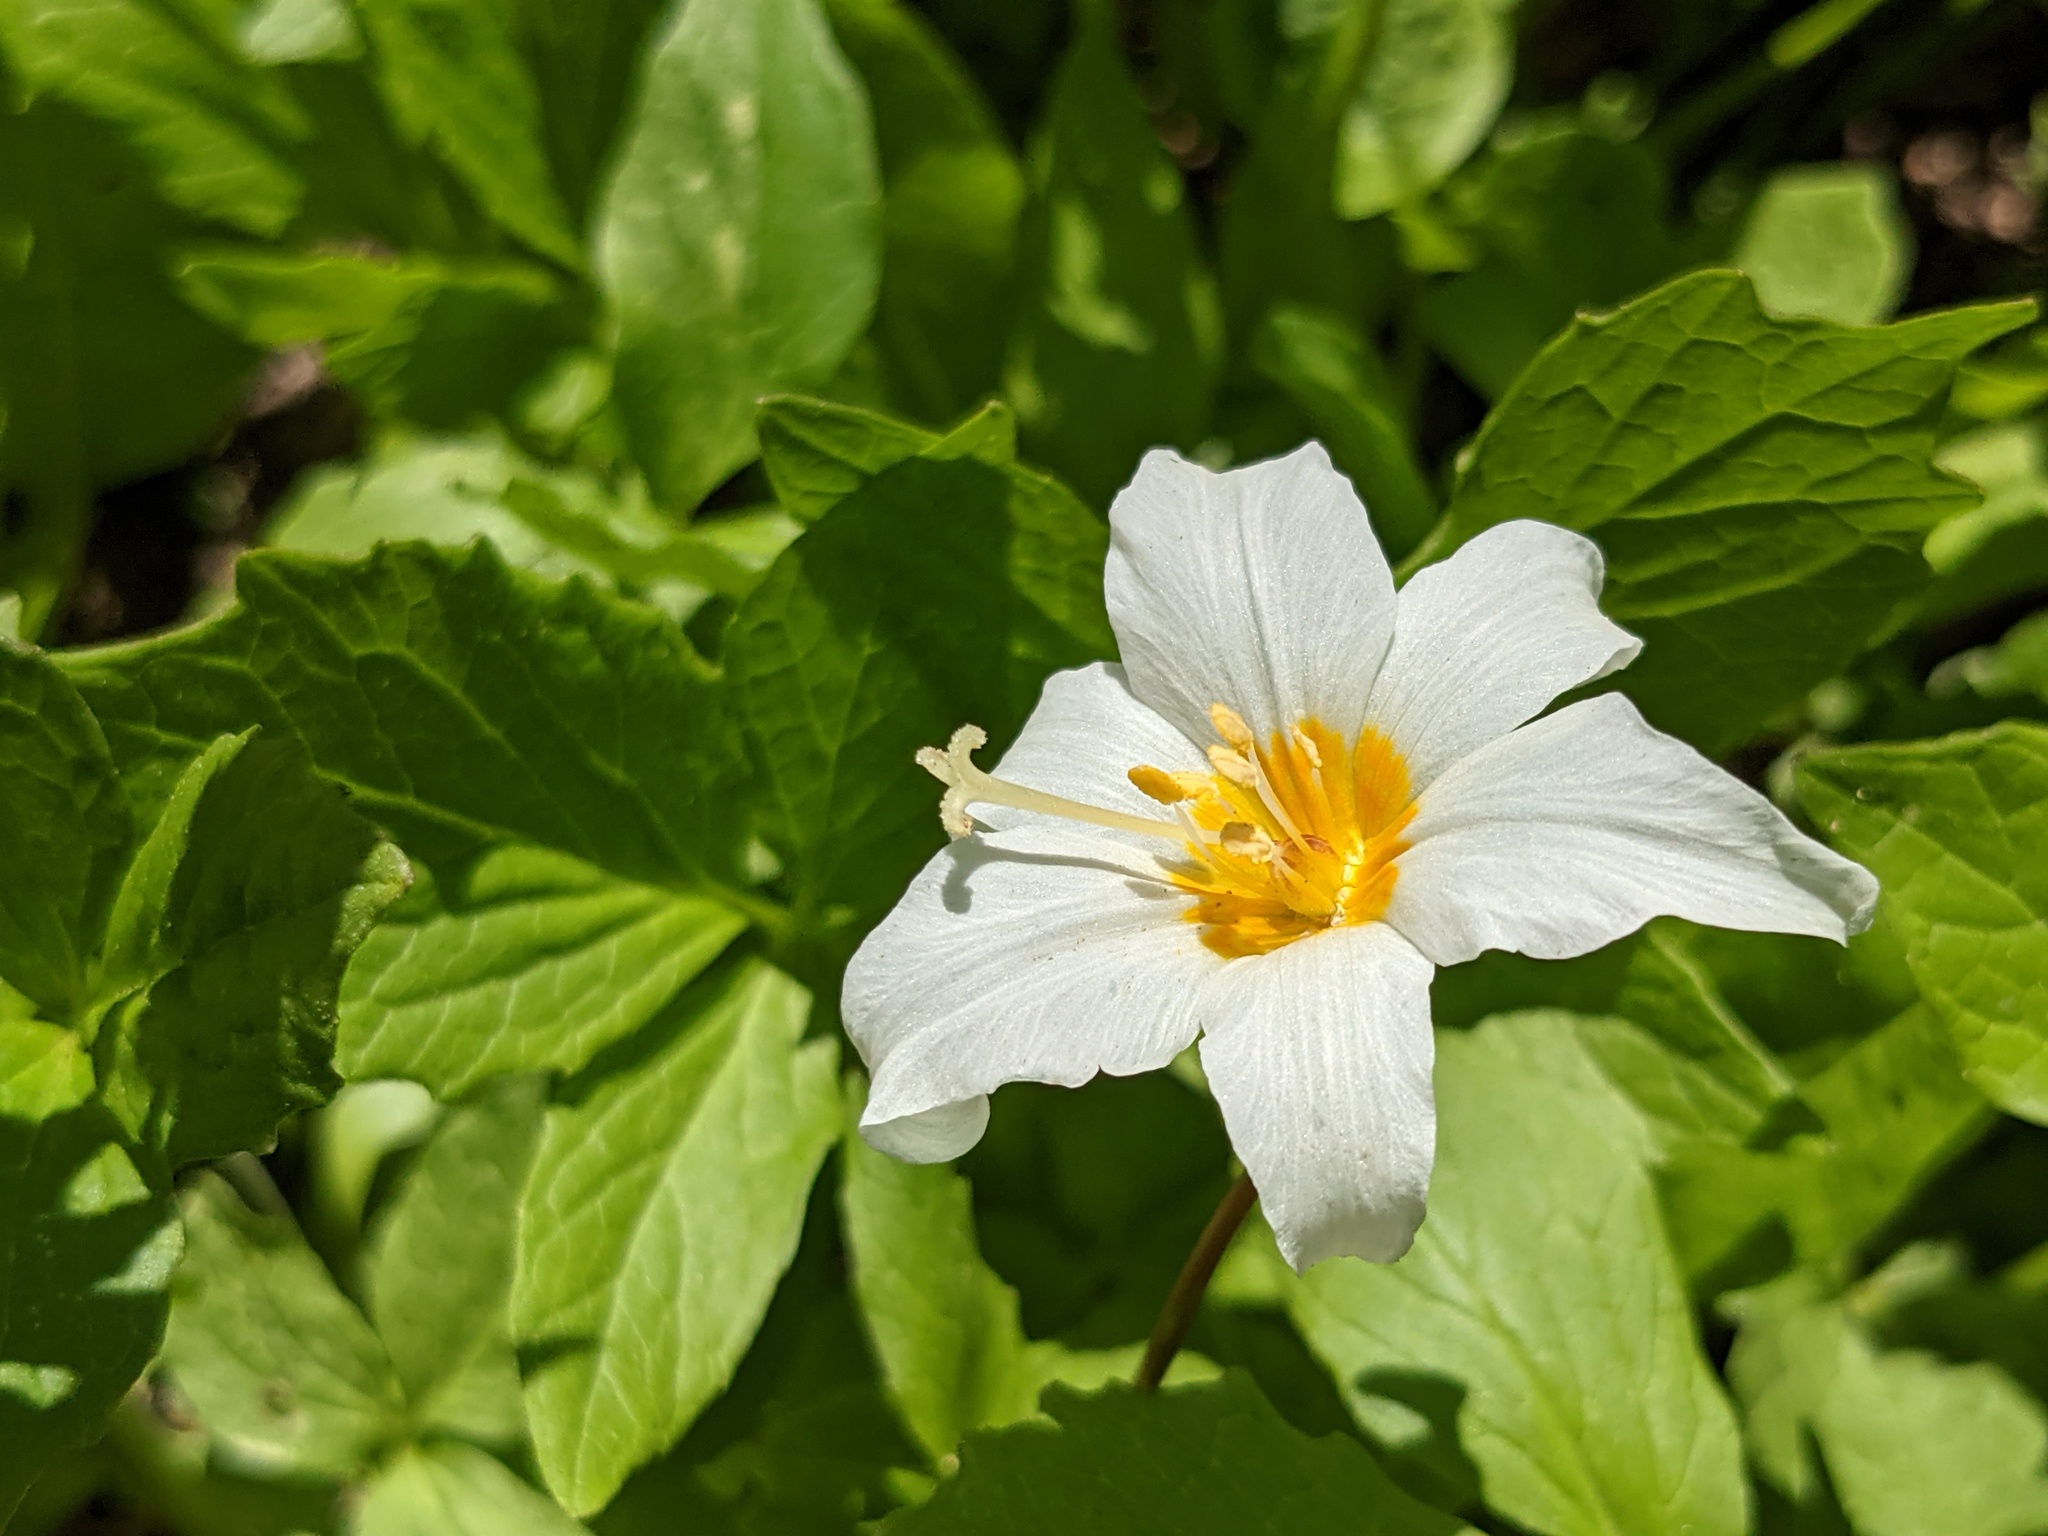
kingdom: Plantae
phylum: Tracheophyta
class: Liliopsida
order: Liliales
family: Liliaceae
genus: Erythronium
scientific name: Erythronium montanum
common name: Avalanche lily
